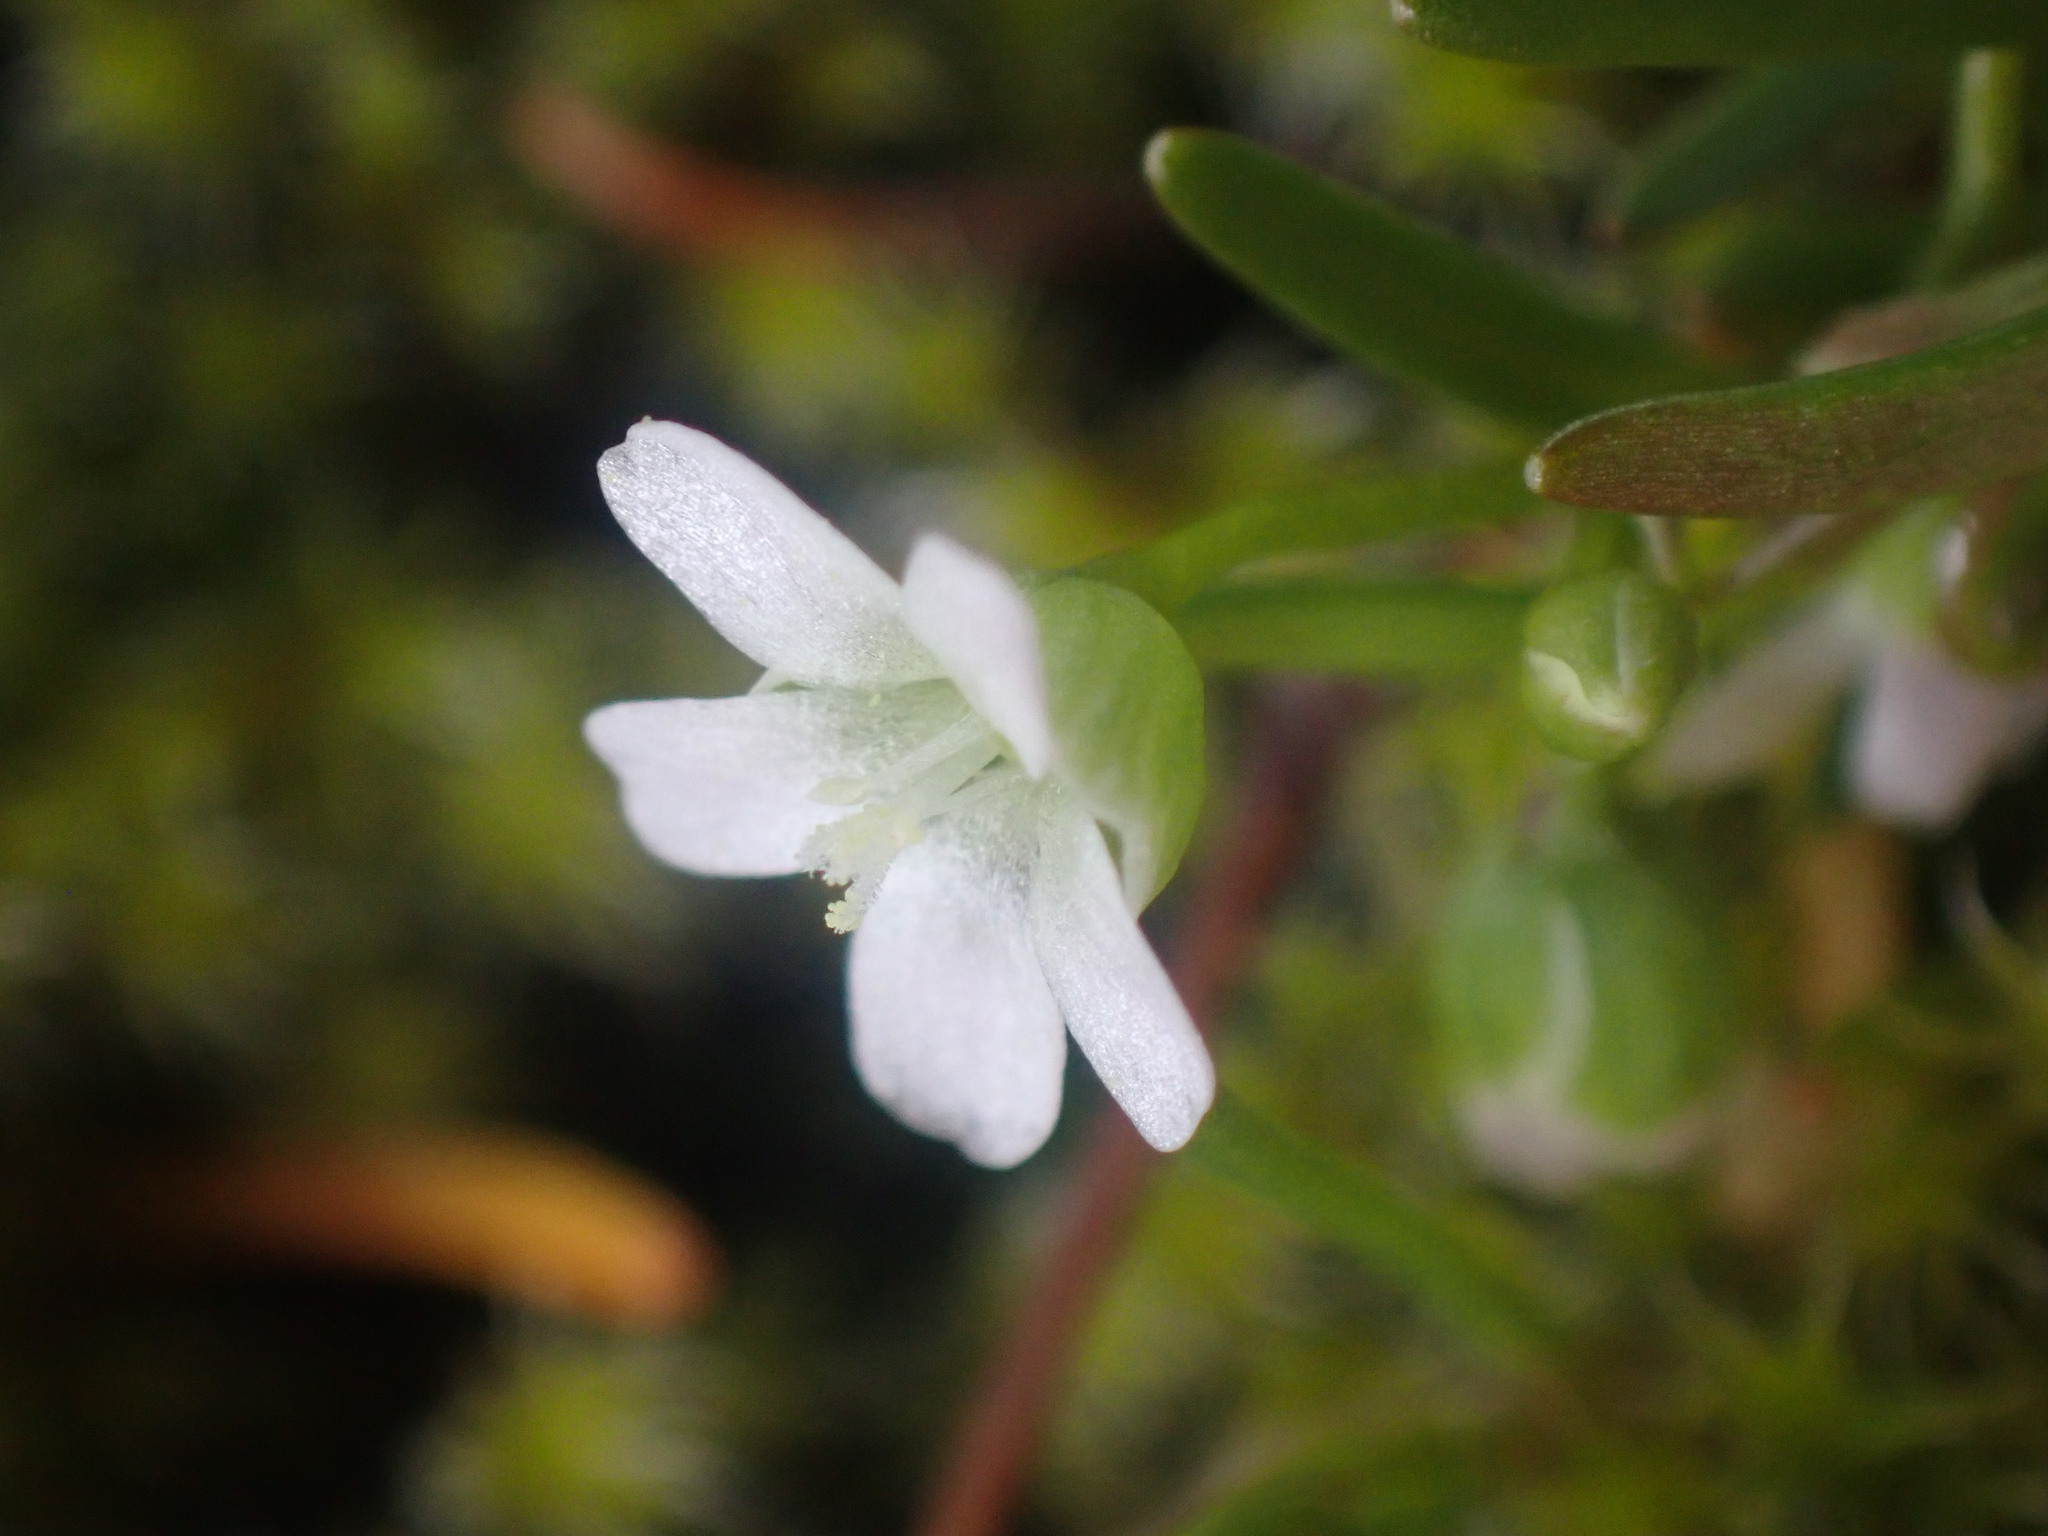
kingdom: Plantae
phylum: Tracheophyta
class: Magnoliopsida
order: Caryophyllales
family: Montiaceae
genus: Montia
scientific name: Montia linearis
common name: Narrow-leaf montia
